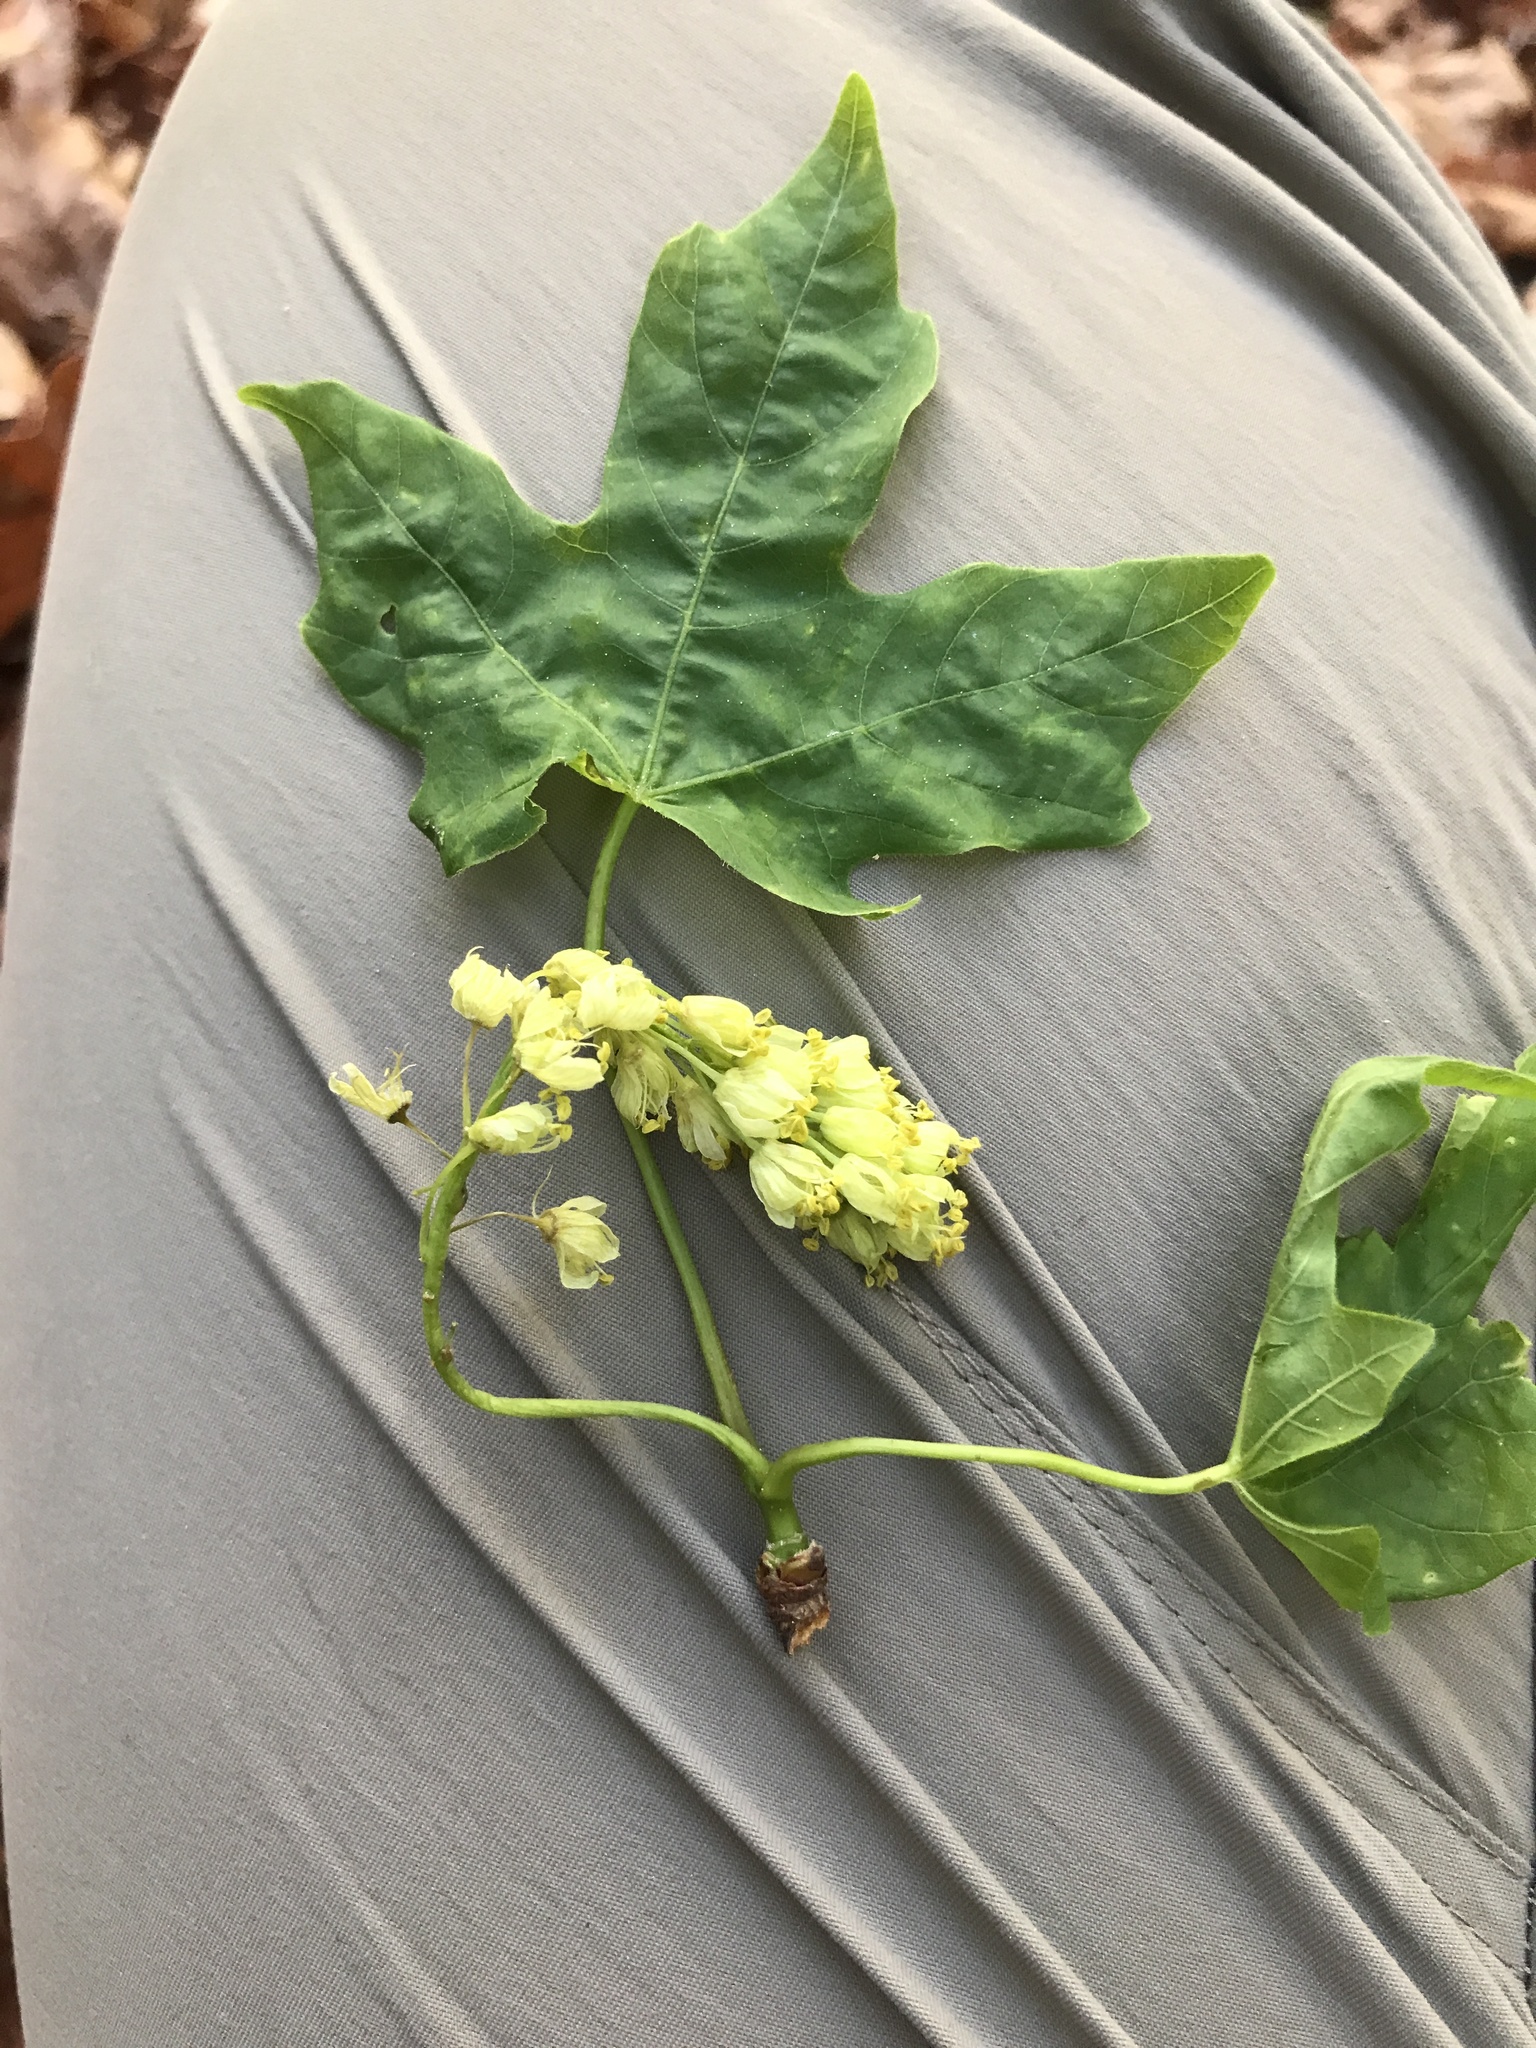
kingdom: Plantae
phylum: Tracheophyta
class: Magnoliopsida
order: Sapindales
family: Sapindaceae
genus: Acer
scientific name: Acer macrophyllum
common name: Oregon maple
